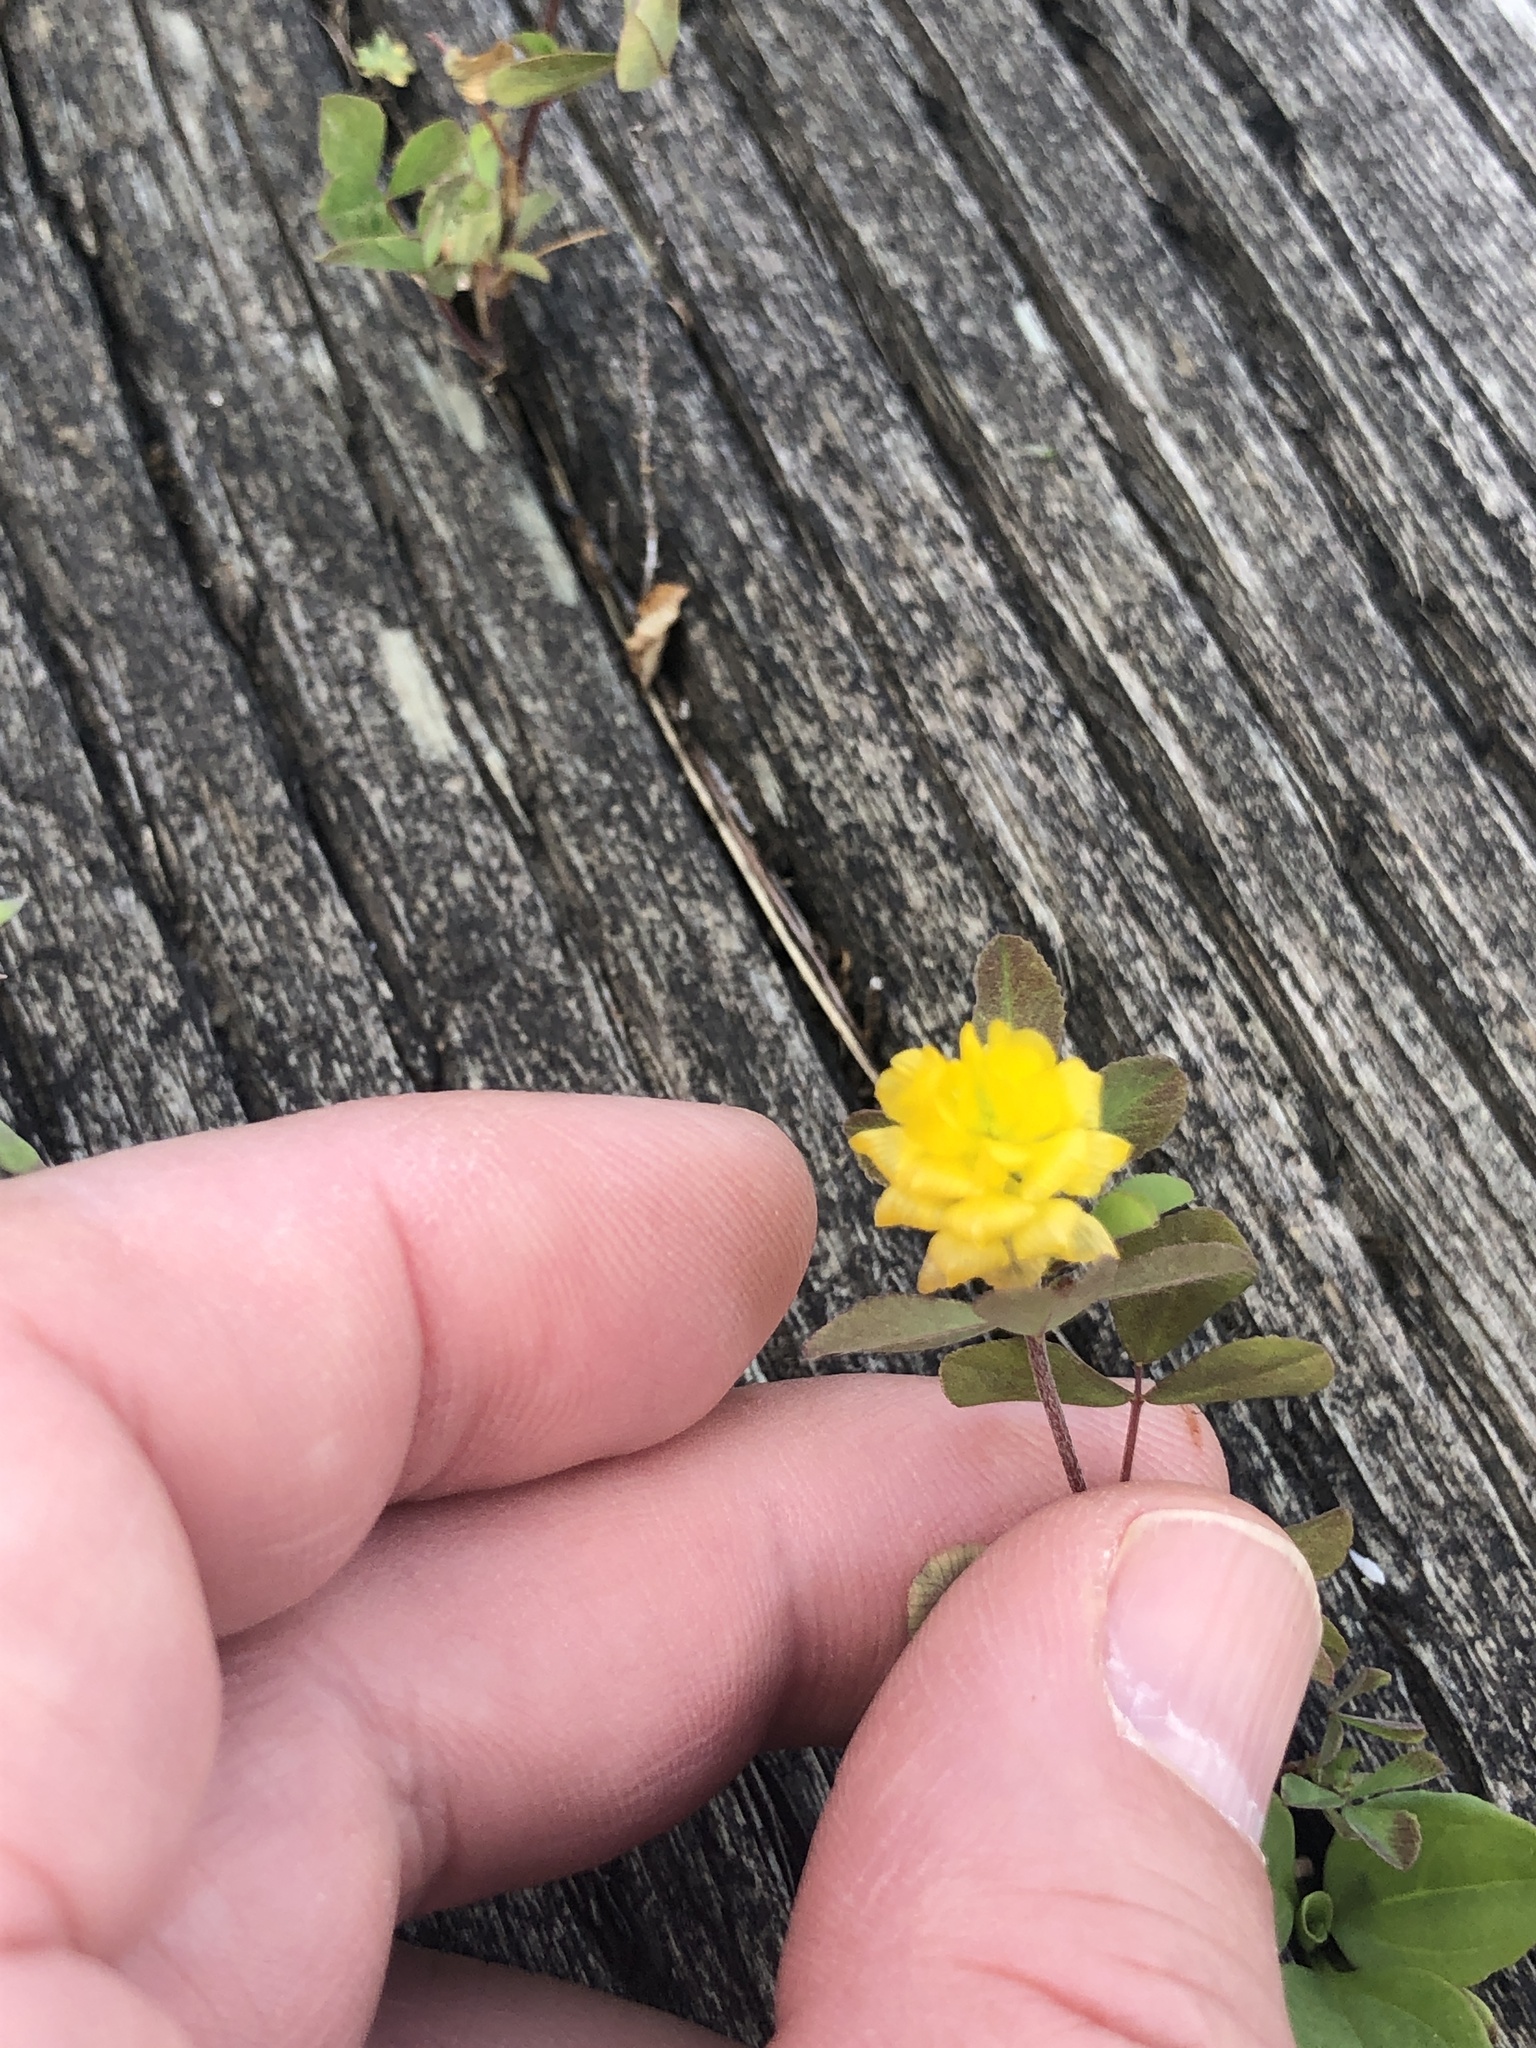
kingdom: Plantae
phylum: Tracheophyta
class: Magnoliopsida
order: Fabales
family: Fabaceae
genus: Trifolium
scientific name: Trifolium campestre
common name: Field clover
